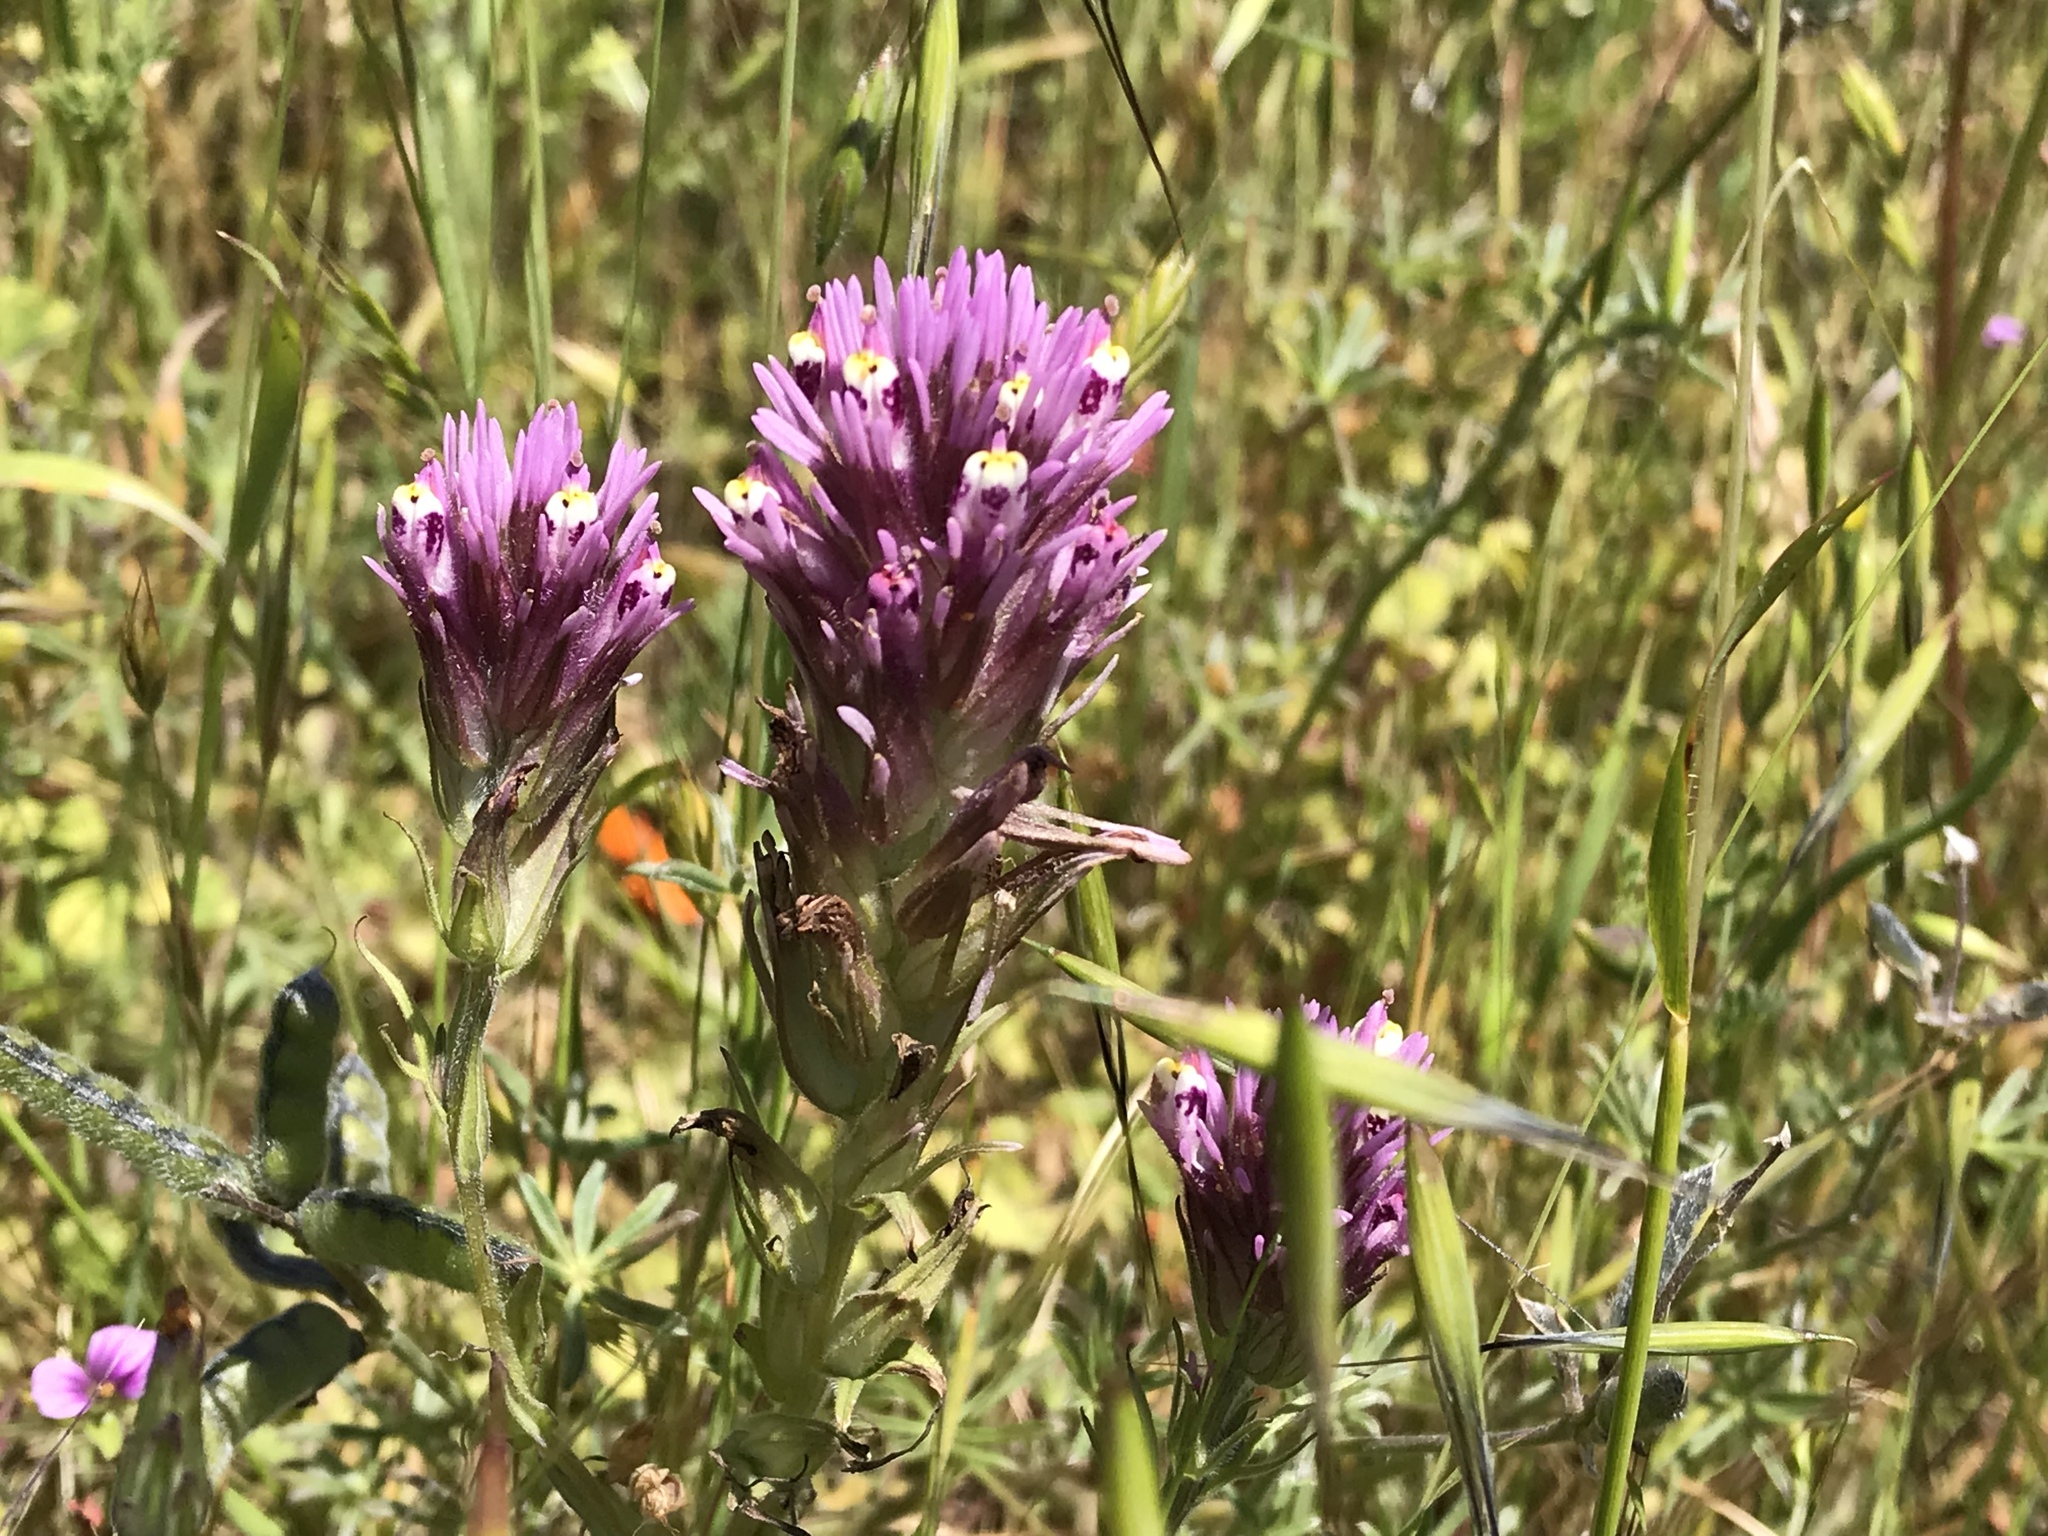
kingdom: Plantae
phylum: Tracheophyta
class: Magnoliopsida
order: Lamiales
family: Orobanchaceae
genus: Castilleja
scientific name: Castilleja densiflora
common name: Dense-flower indian paintbrush
